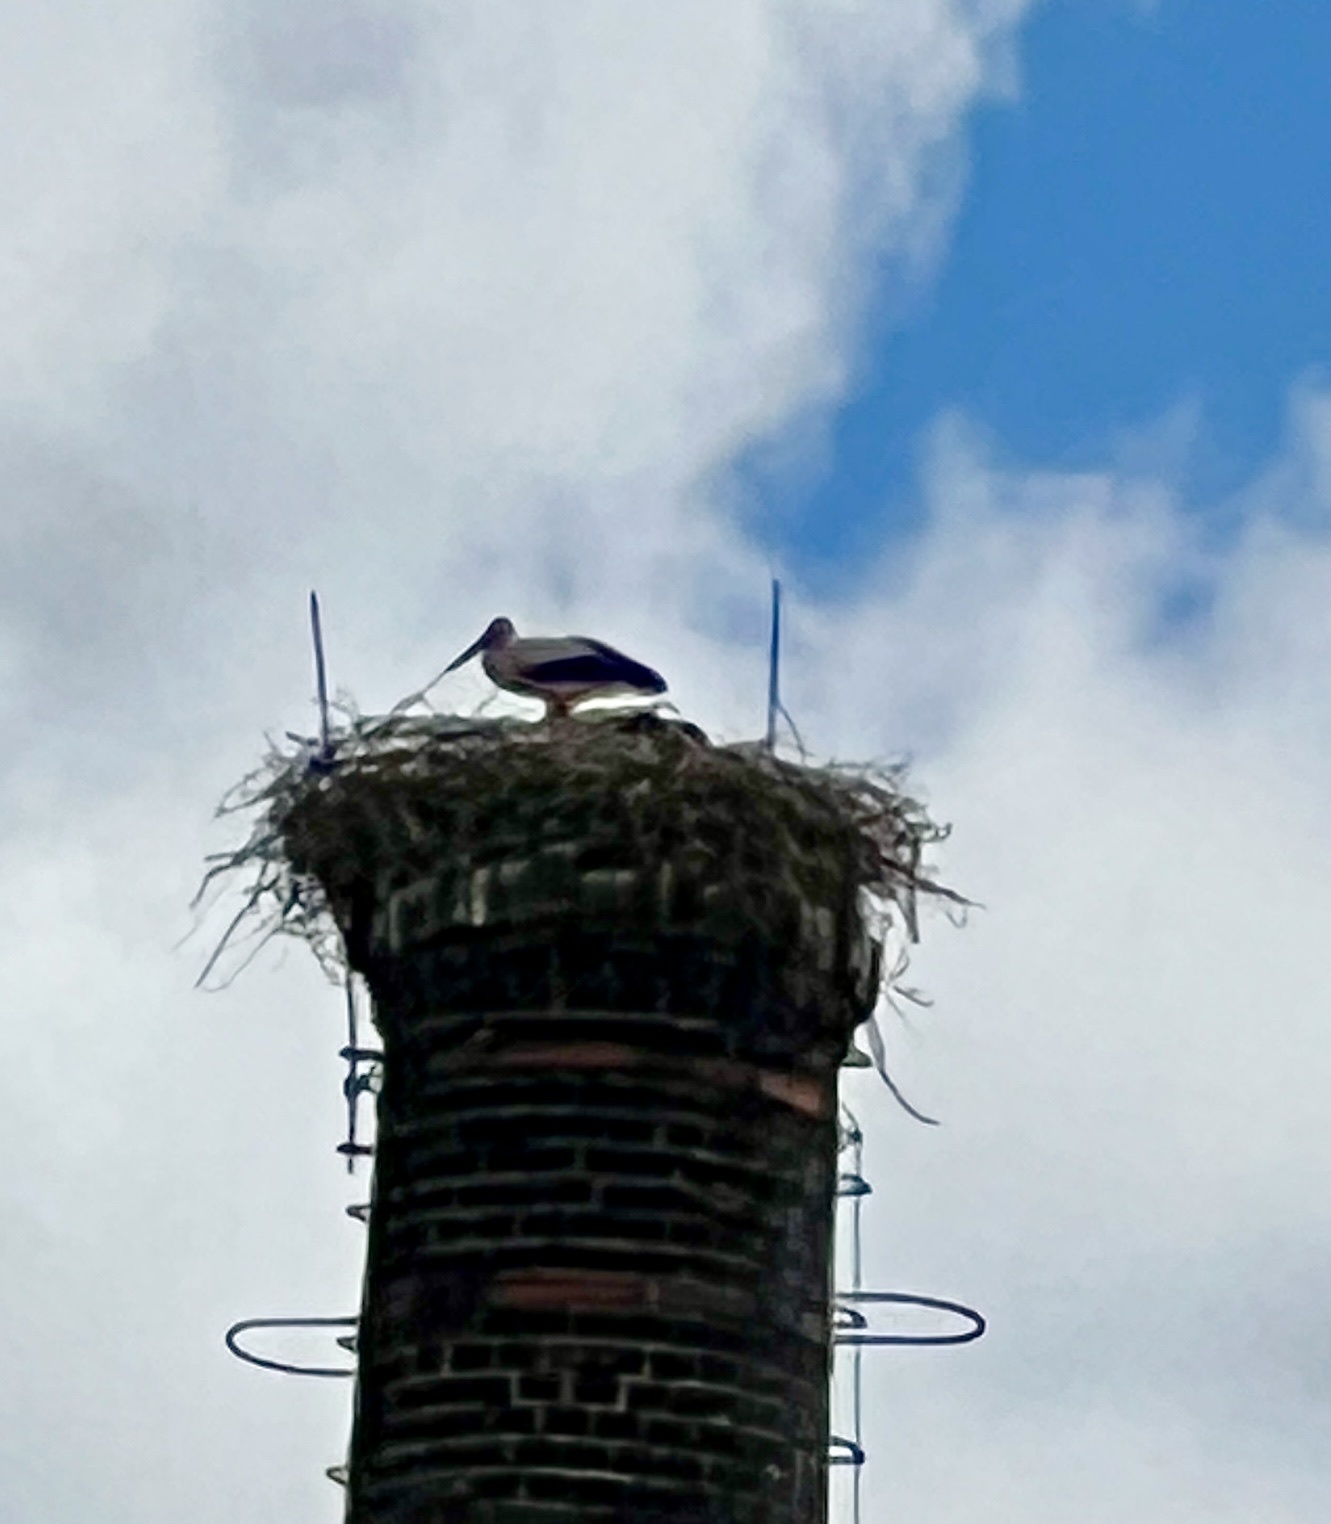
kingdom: Animalia
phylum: Chordata
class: Aves
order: Ciconiiformes
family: Ciconiidae
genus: Ciconia
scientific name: Ciconia ciconia
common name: White stork
